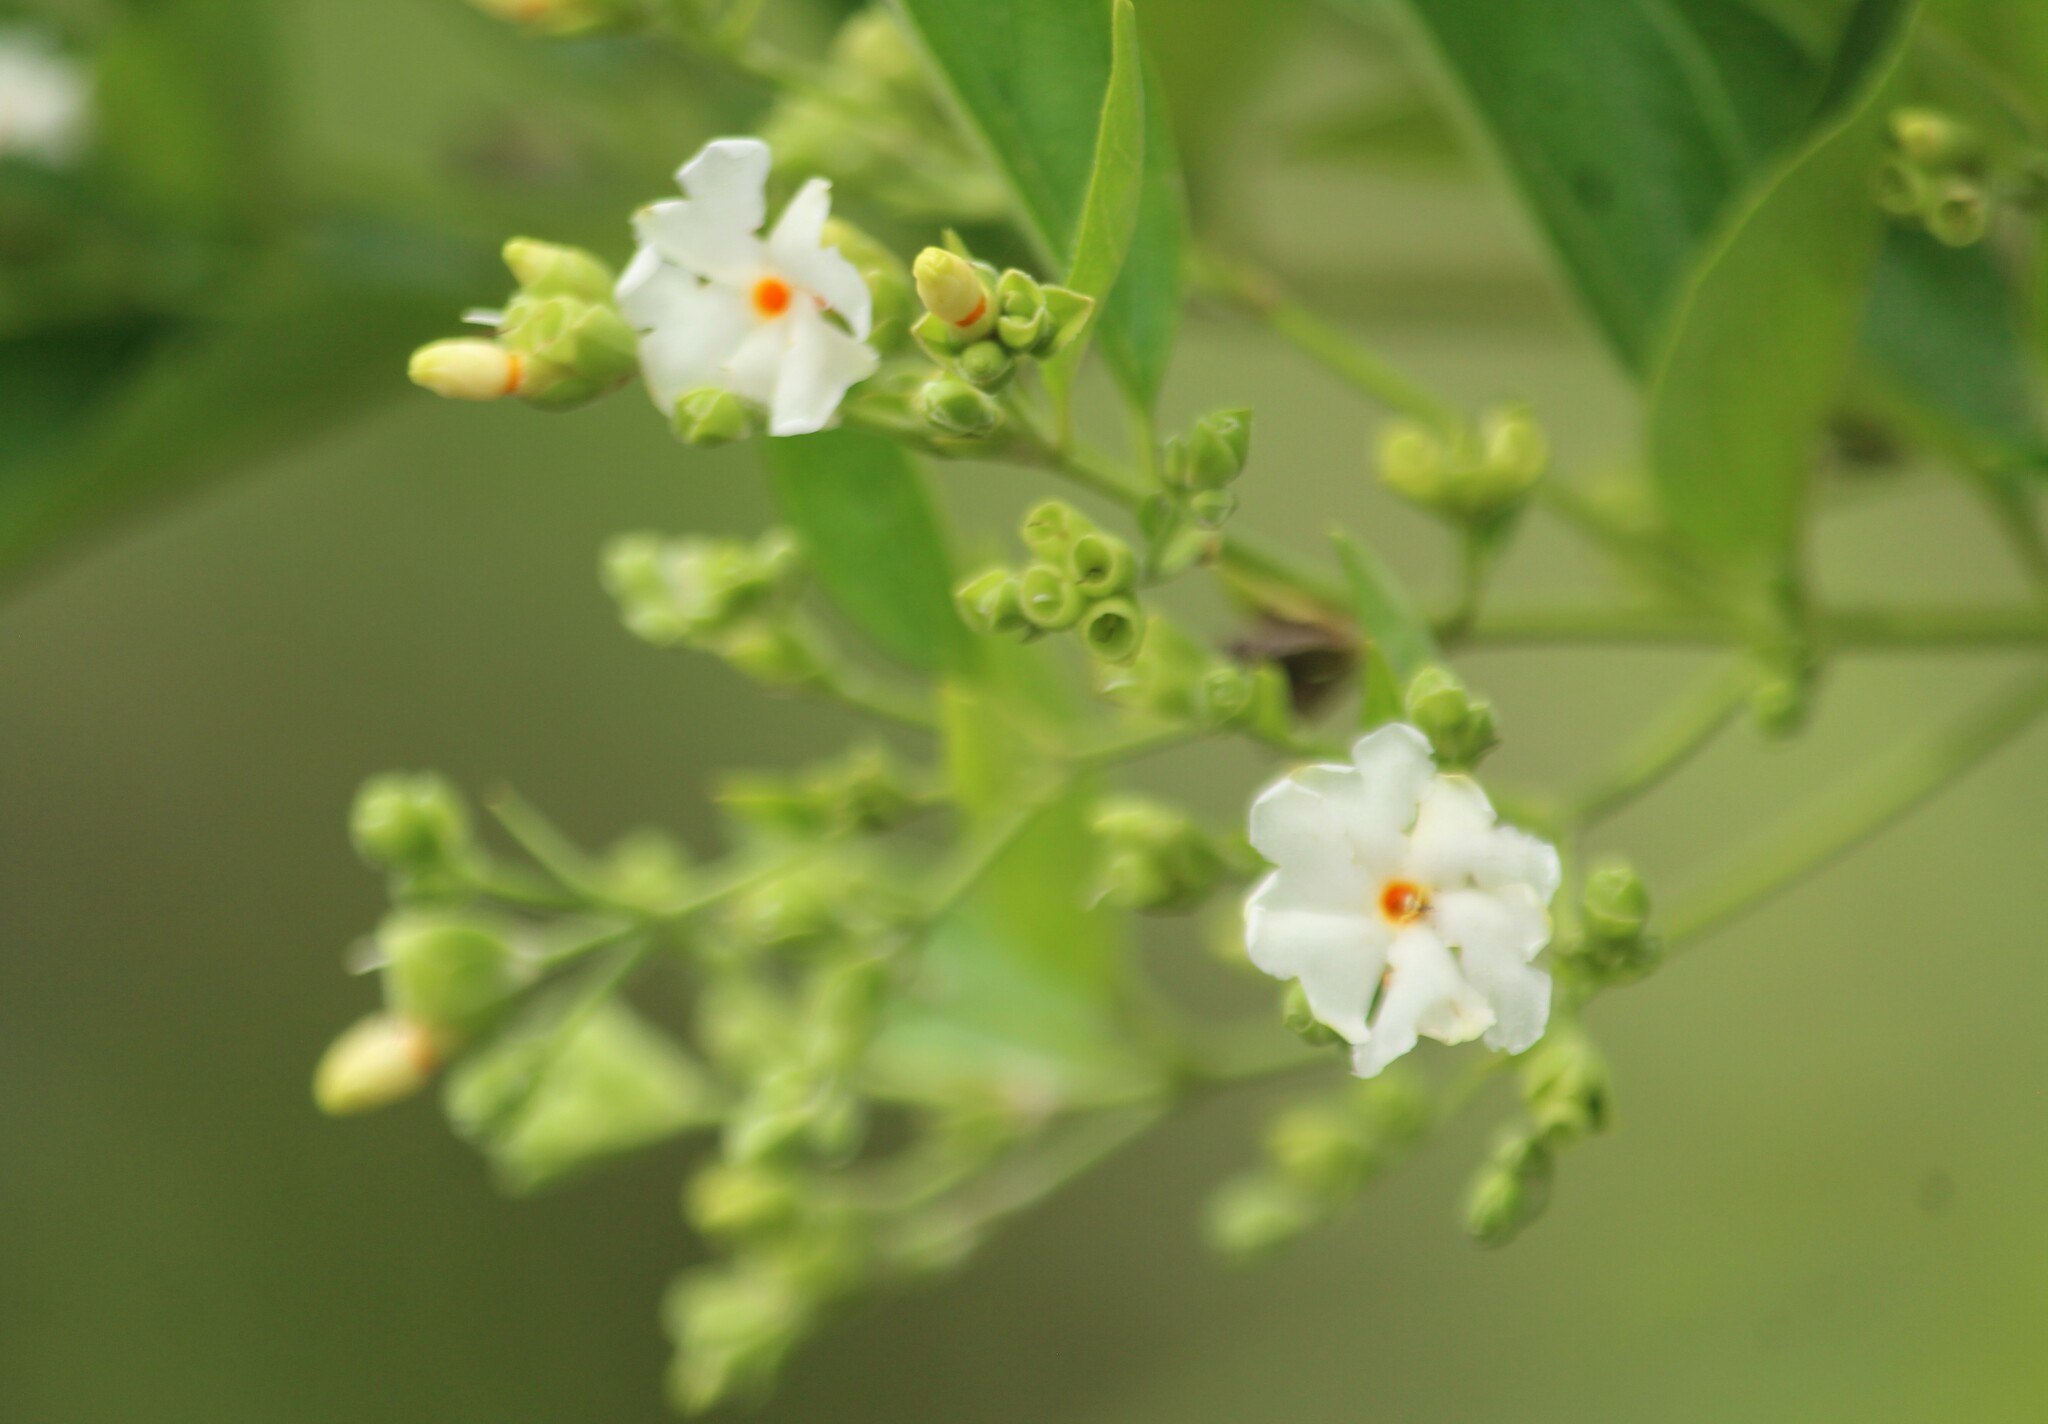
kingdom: Plantae
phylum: Tracheophyta
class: Magnoliopsida
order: Lamiales
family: Oleaceae
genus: Nyctanthes
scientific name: Nyctanthes arbor-tristis
